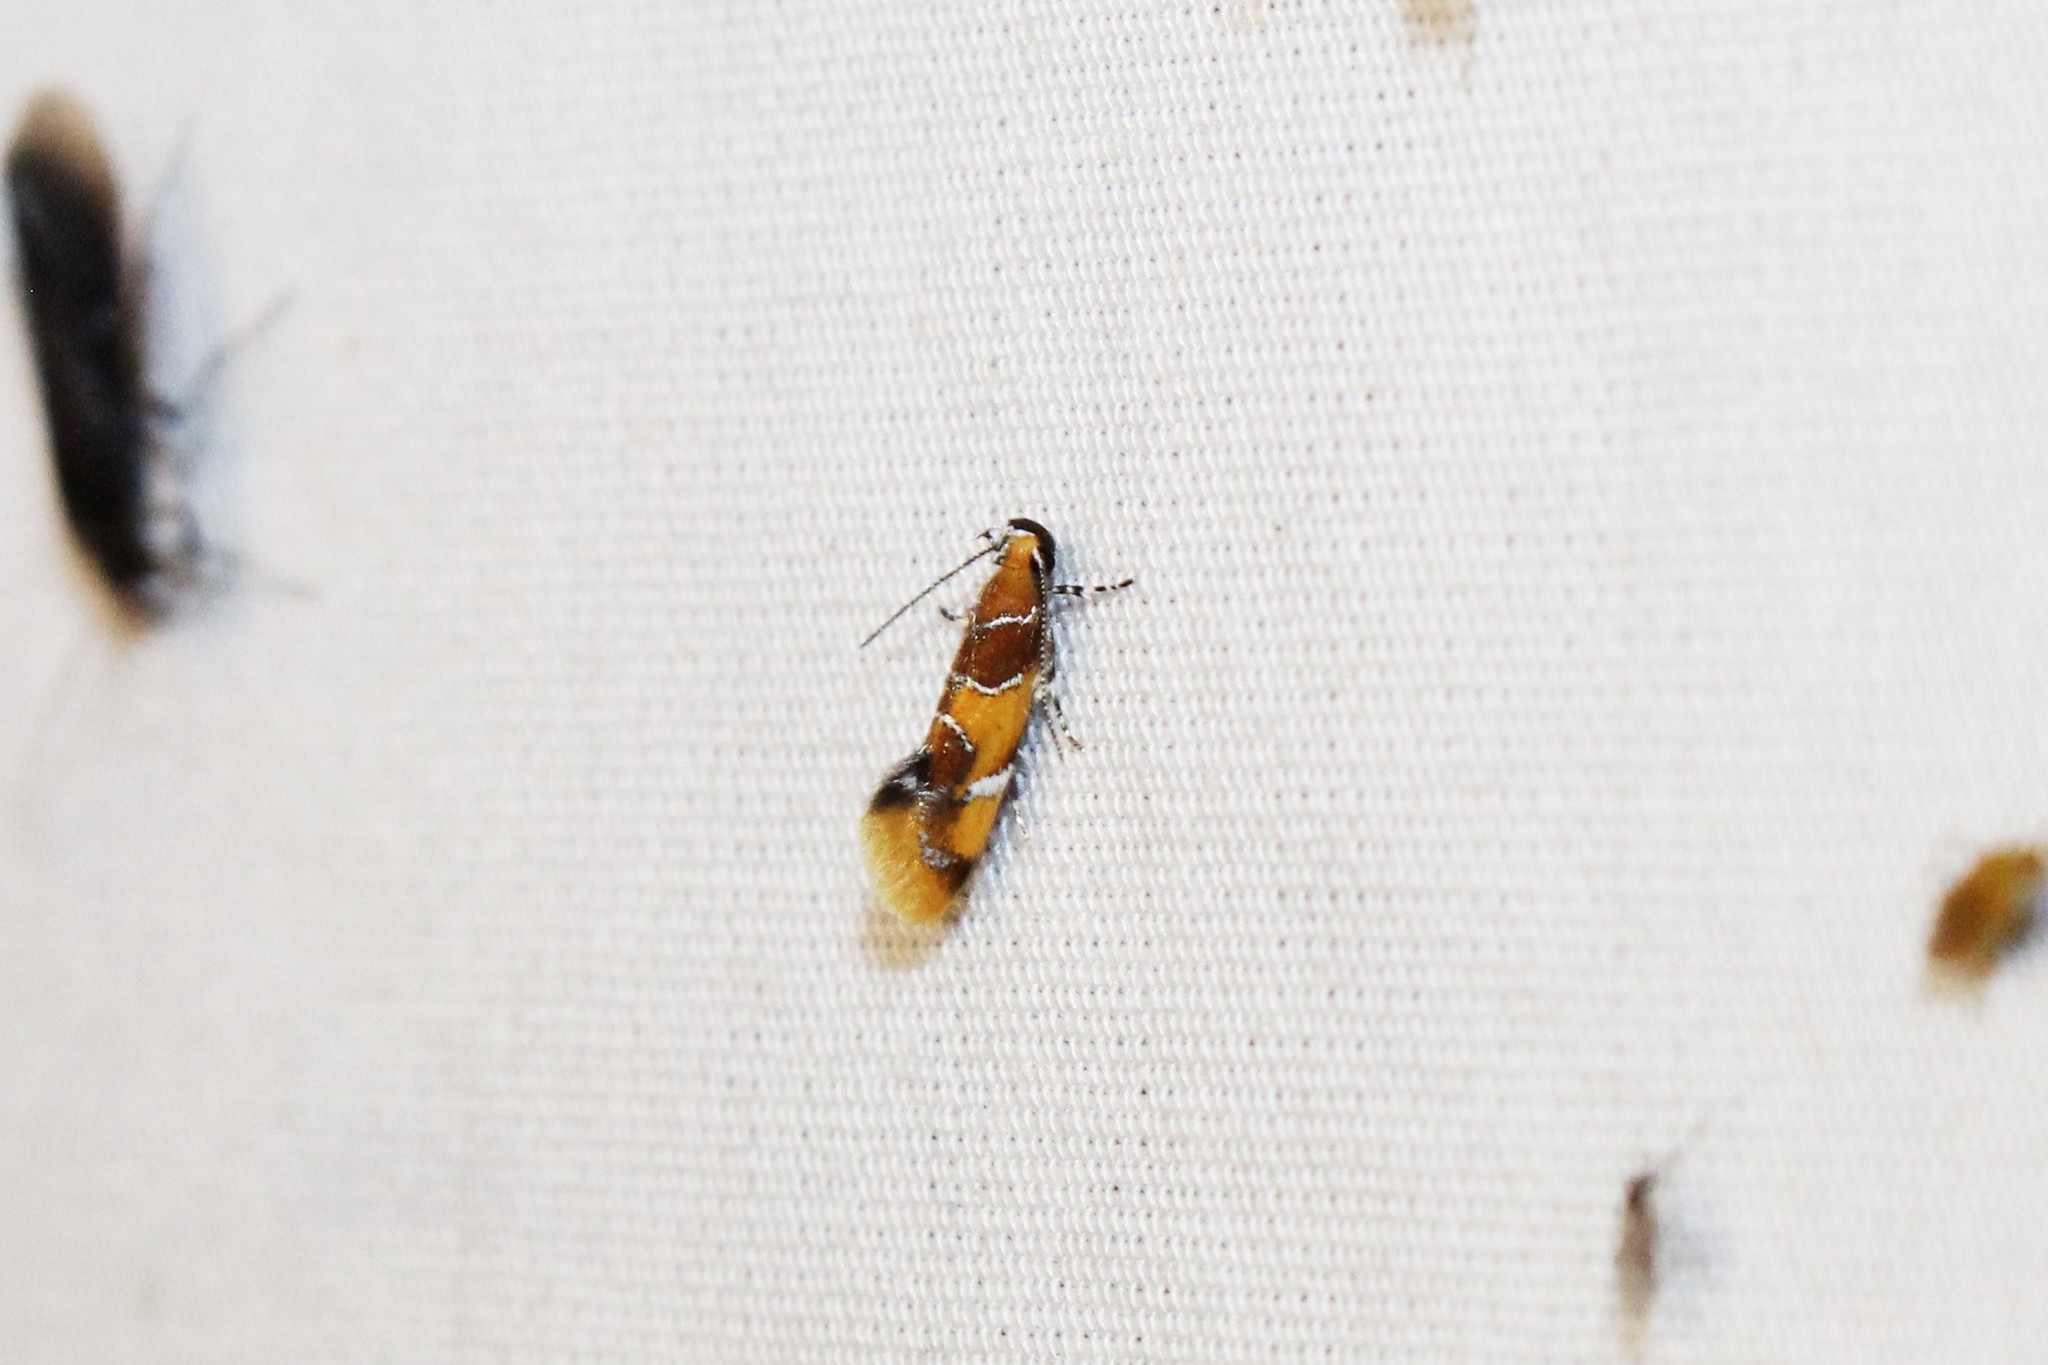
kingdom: Animalia
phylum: Arthropoda
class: Insecta
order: Lepidoptera
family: Oecophoridae
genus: Callima
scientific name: Callima argenticinctella
